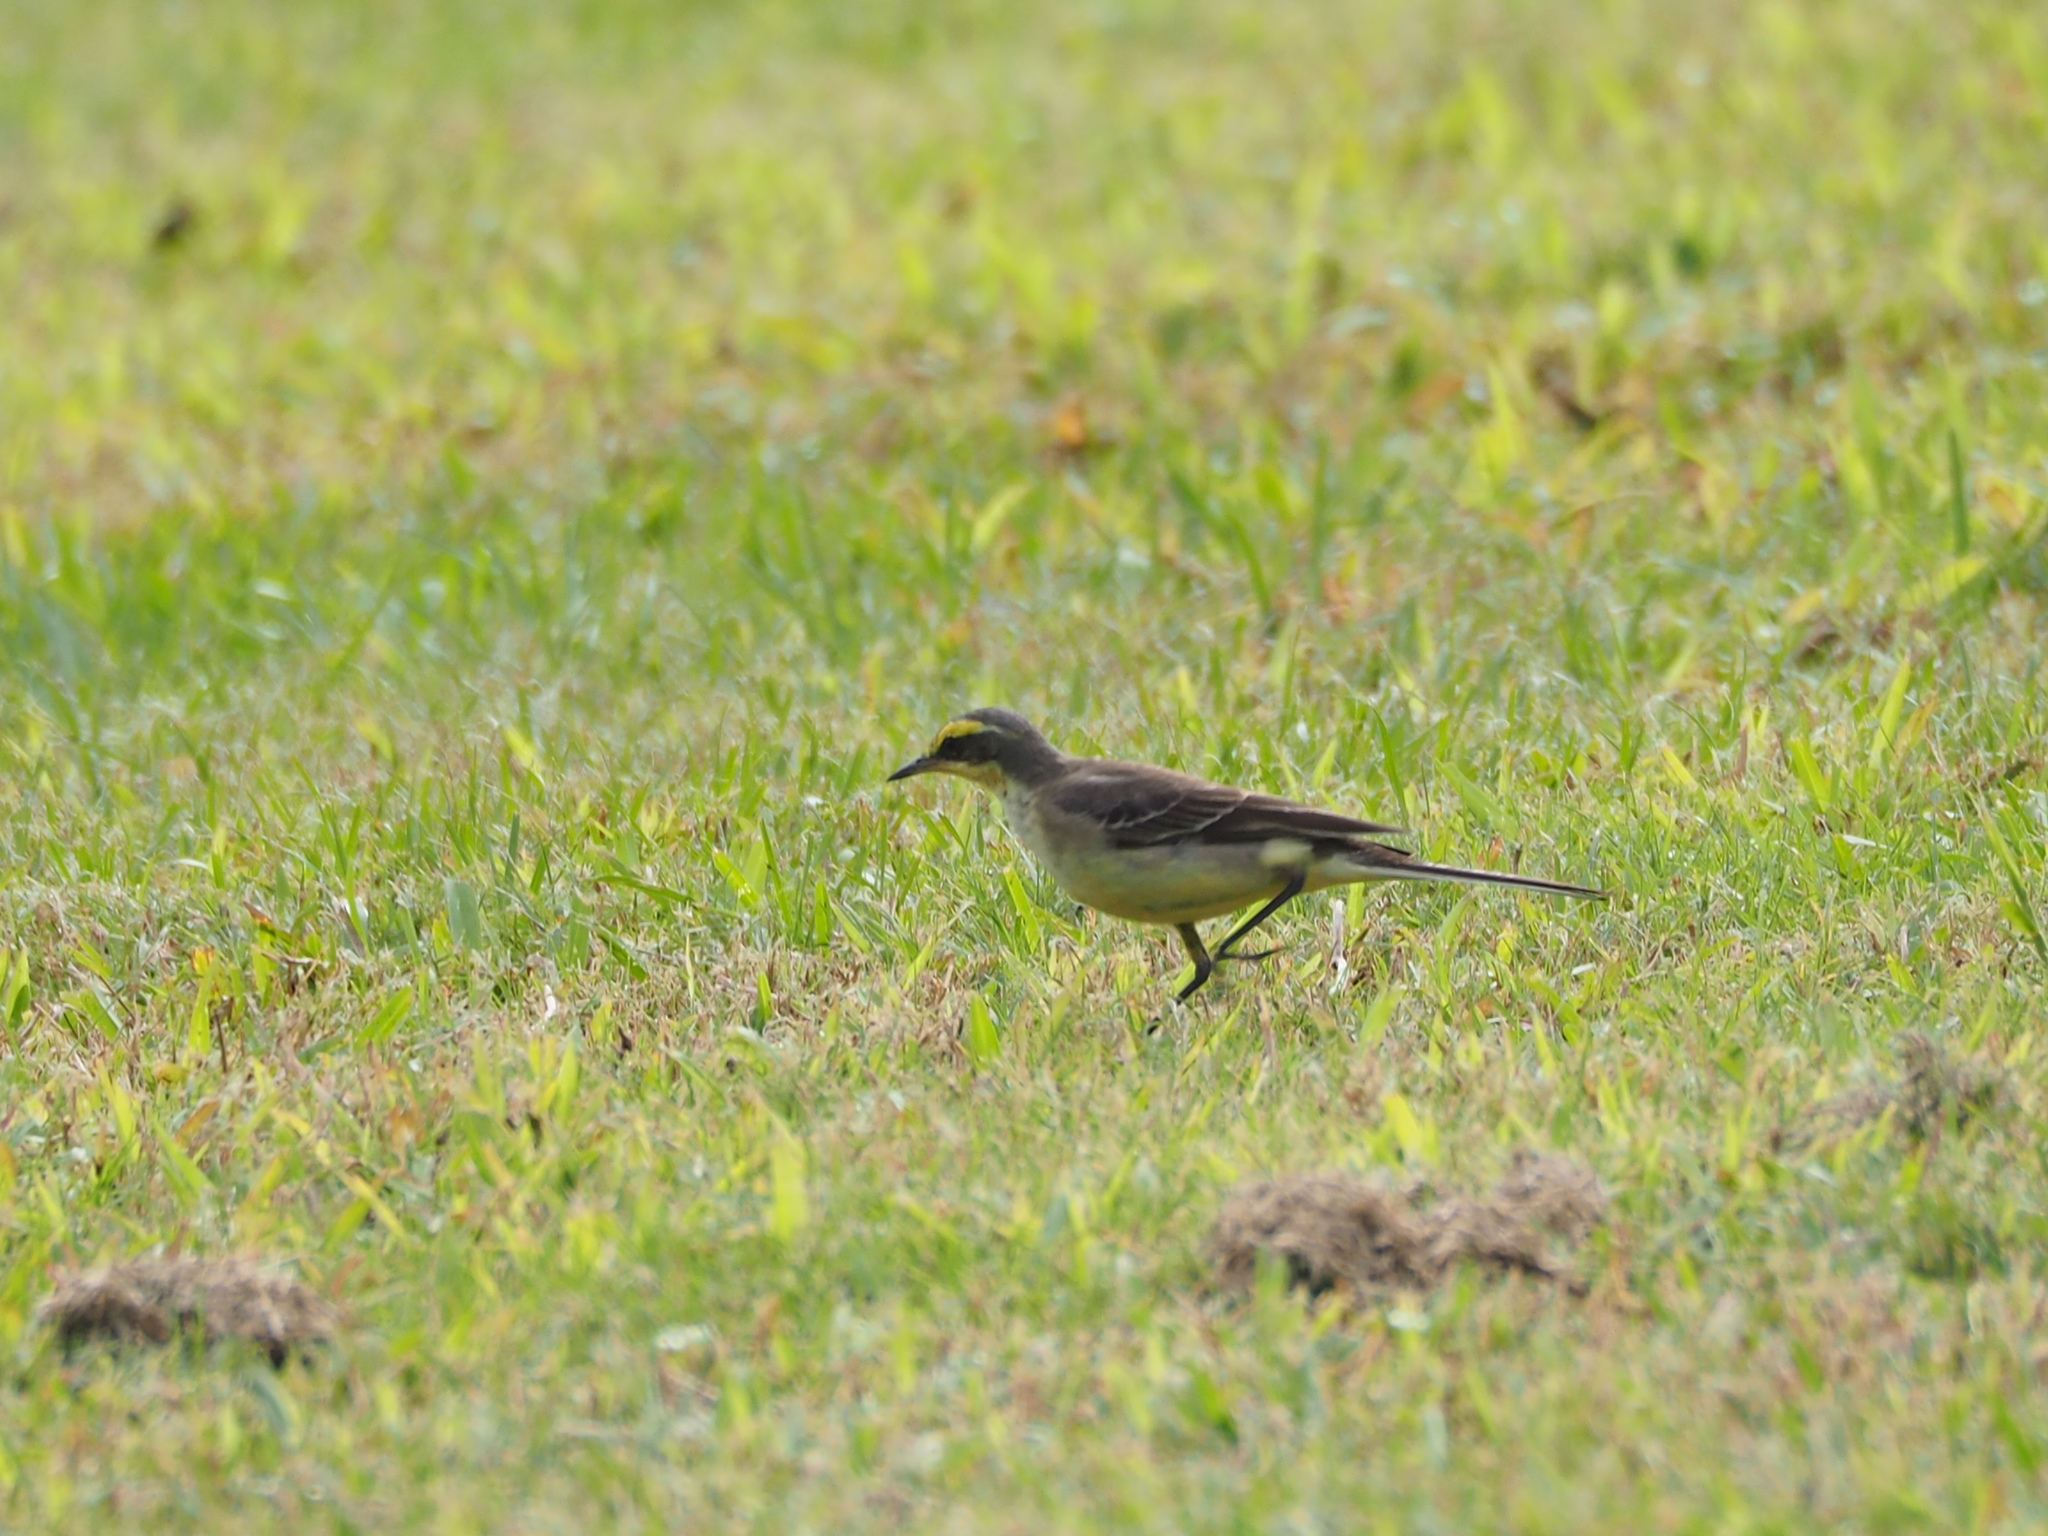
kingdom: Animalia
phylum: Chordata
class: Aves
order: Passeriformes
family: Motacillidae
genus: Motacilla
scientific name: Motacilla tschutschensis
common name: Eastern yellow wagtail
